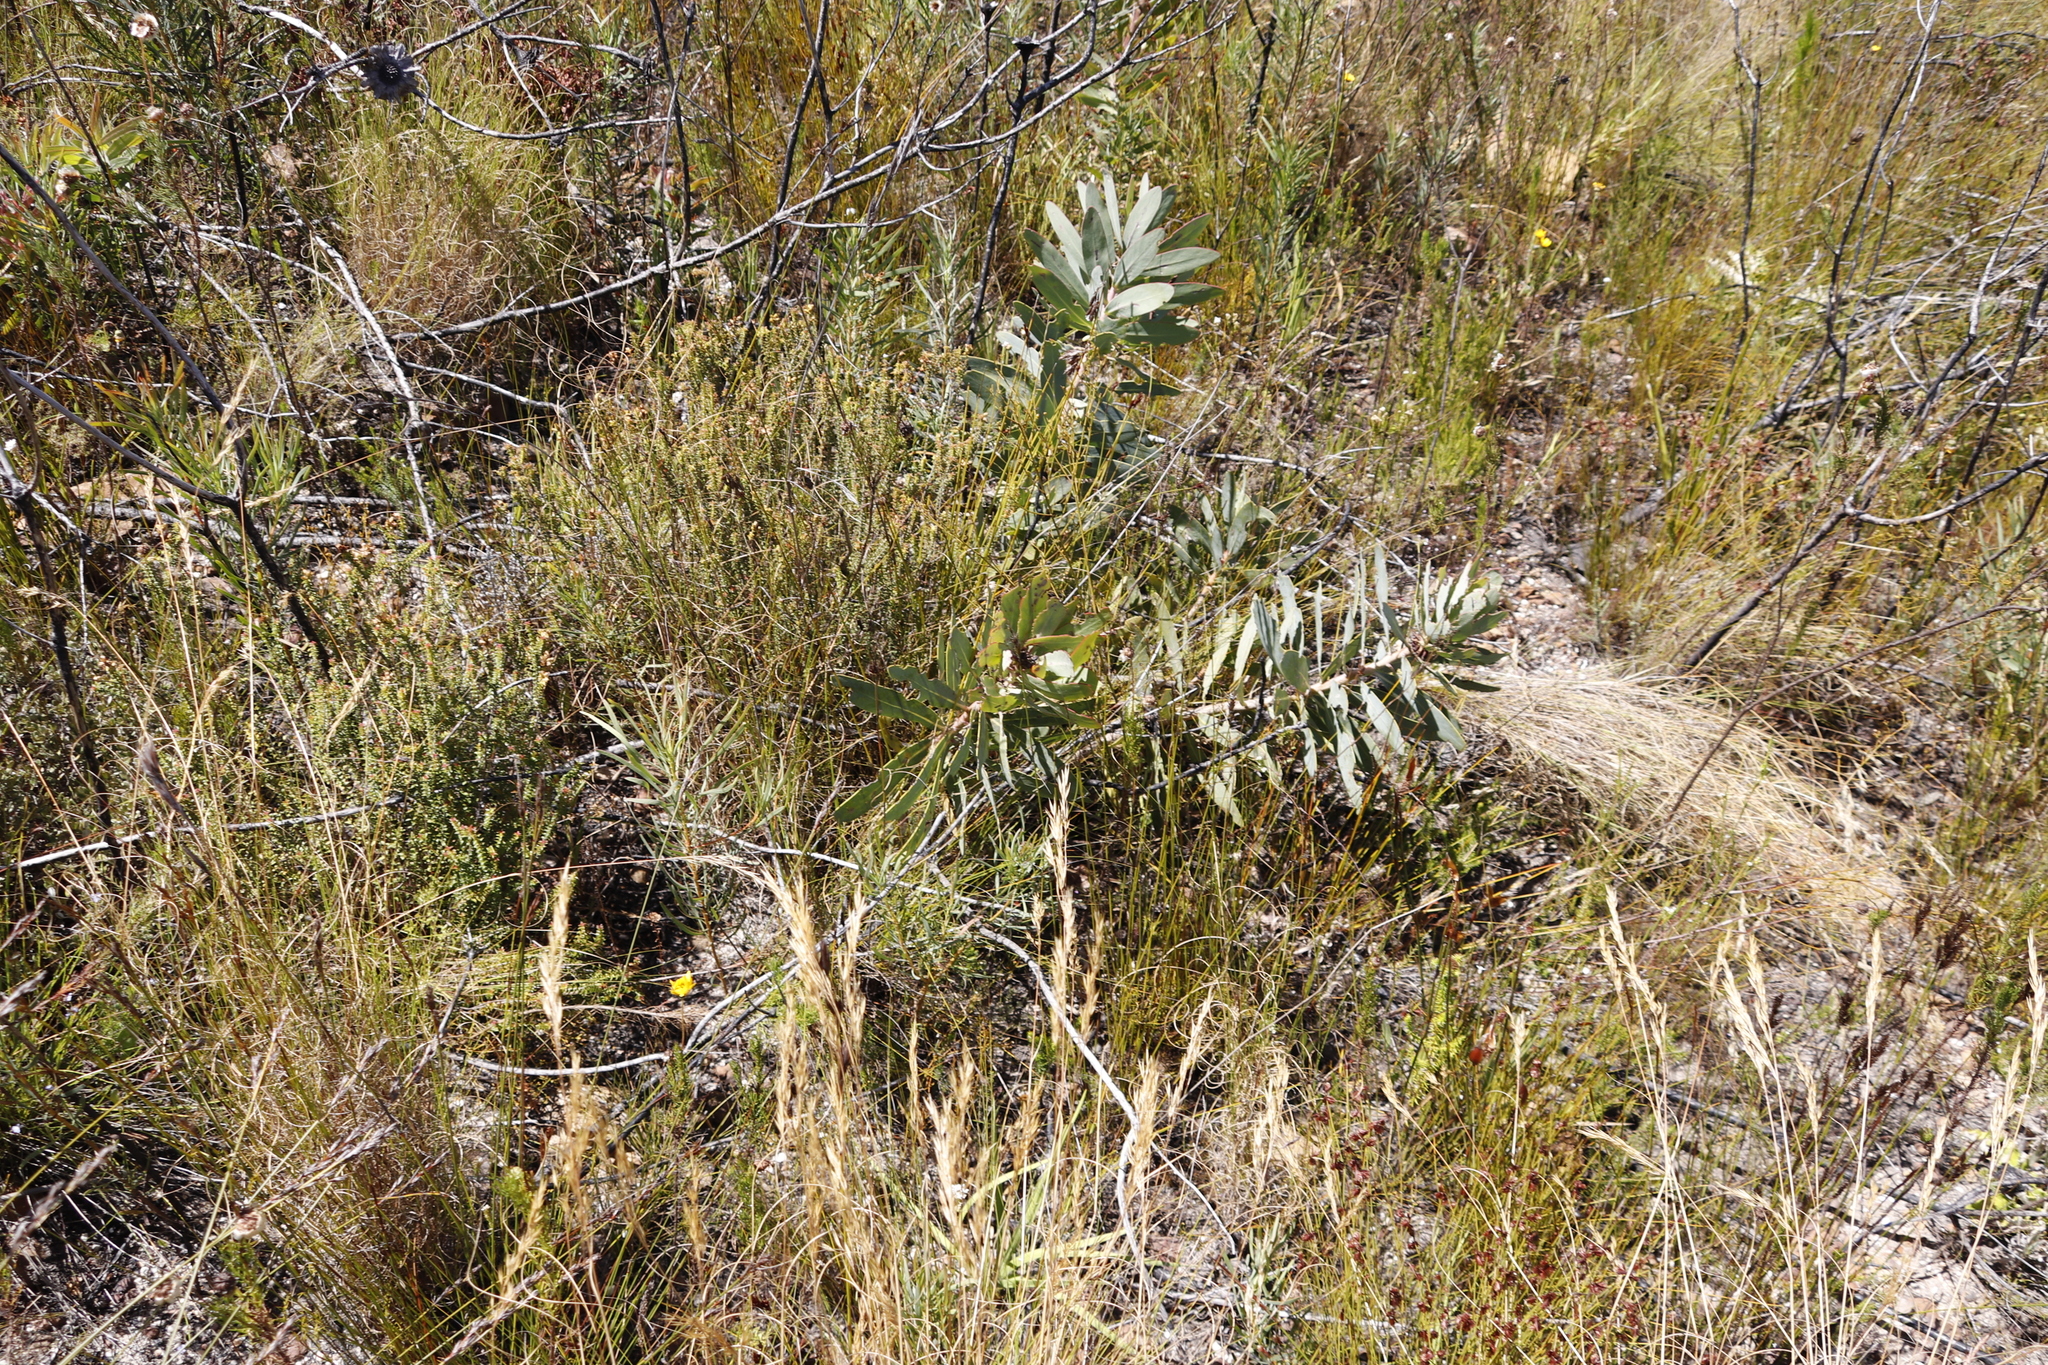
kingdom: Plantae
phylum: Tracheophyta
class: Magnoliopsida
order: Proteales
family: Proteaceae
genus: Protea
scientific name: Protea nitida
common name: Tree protea
